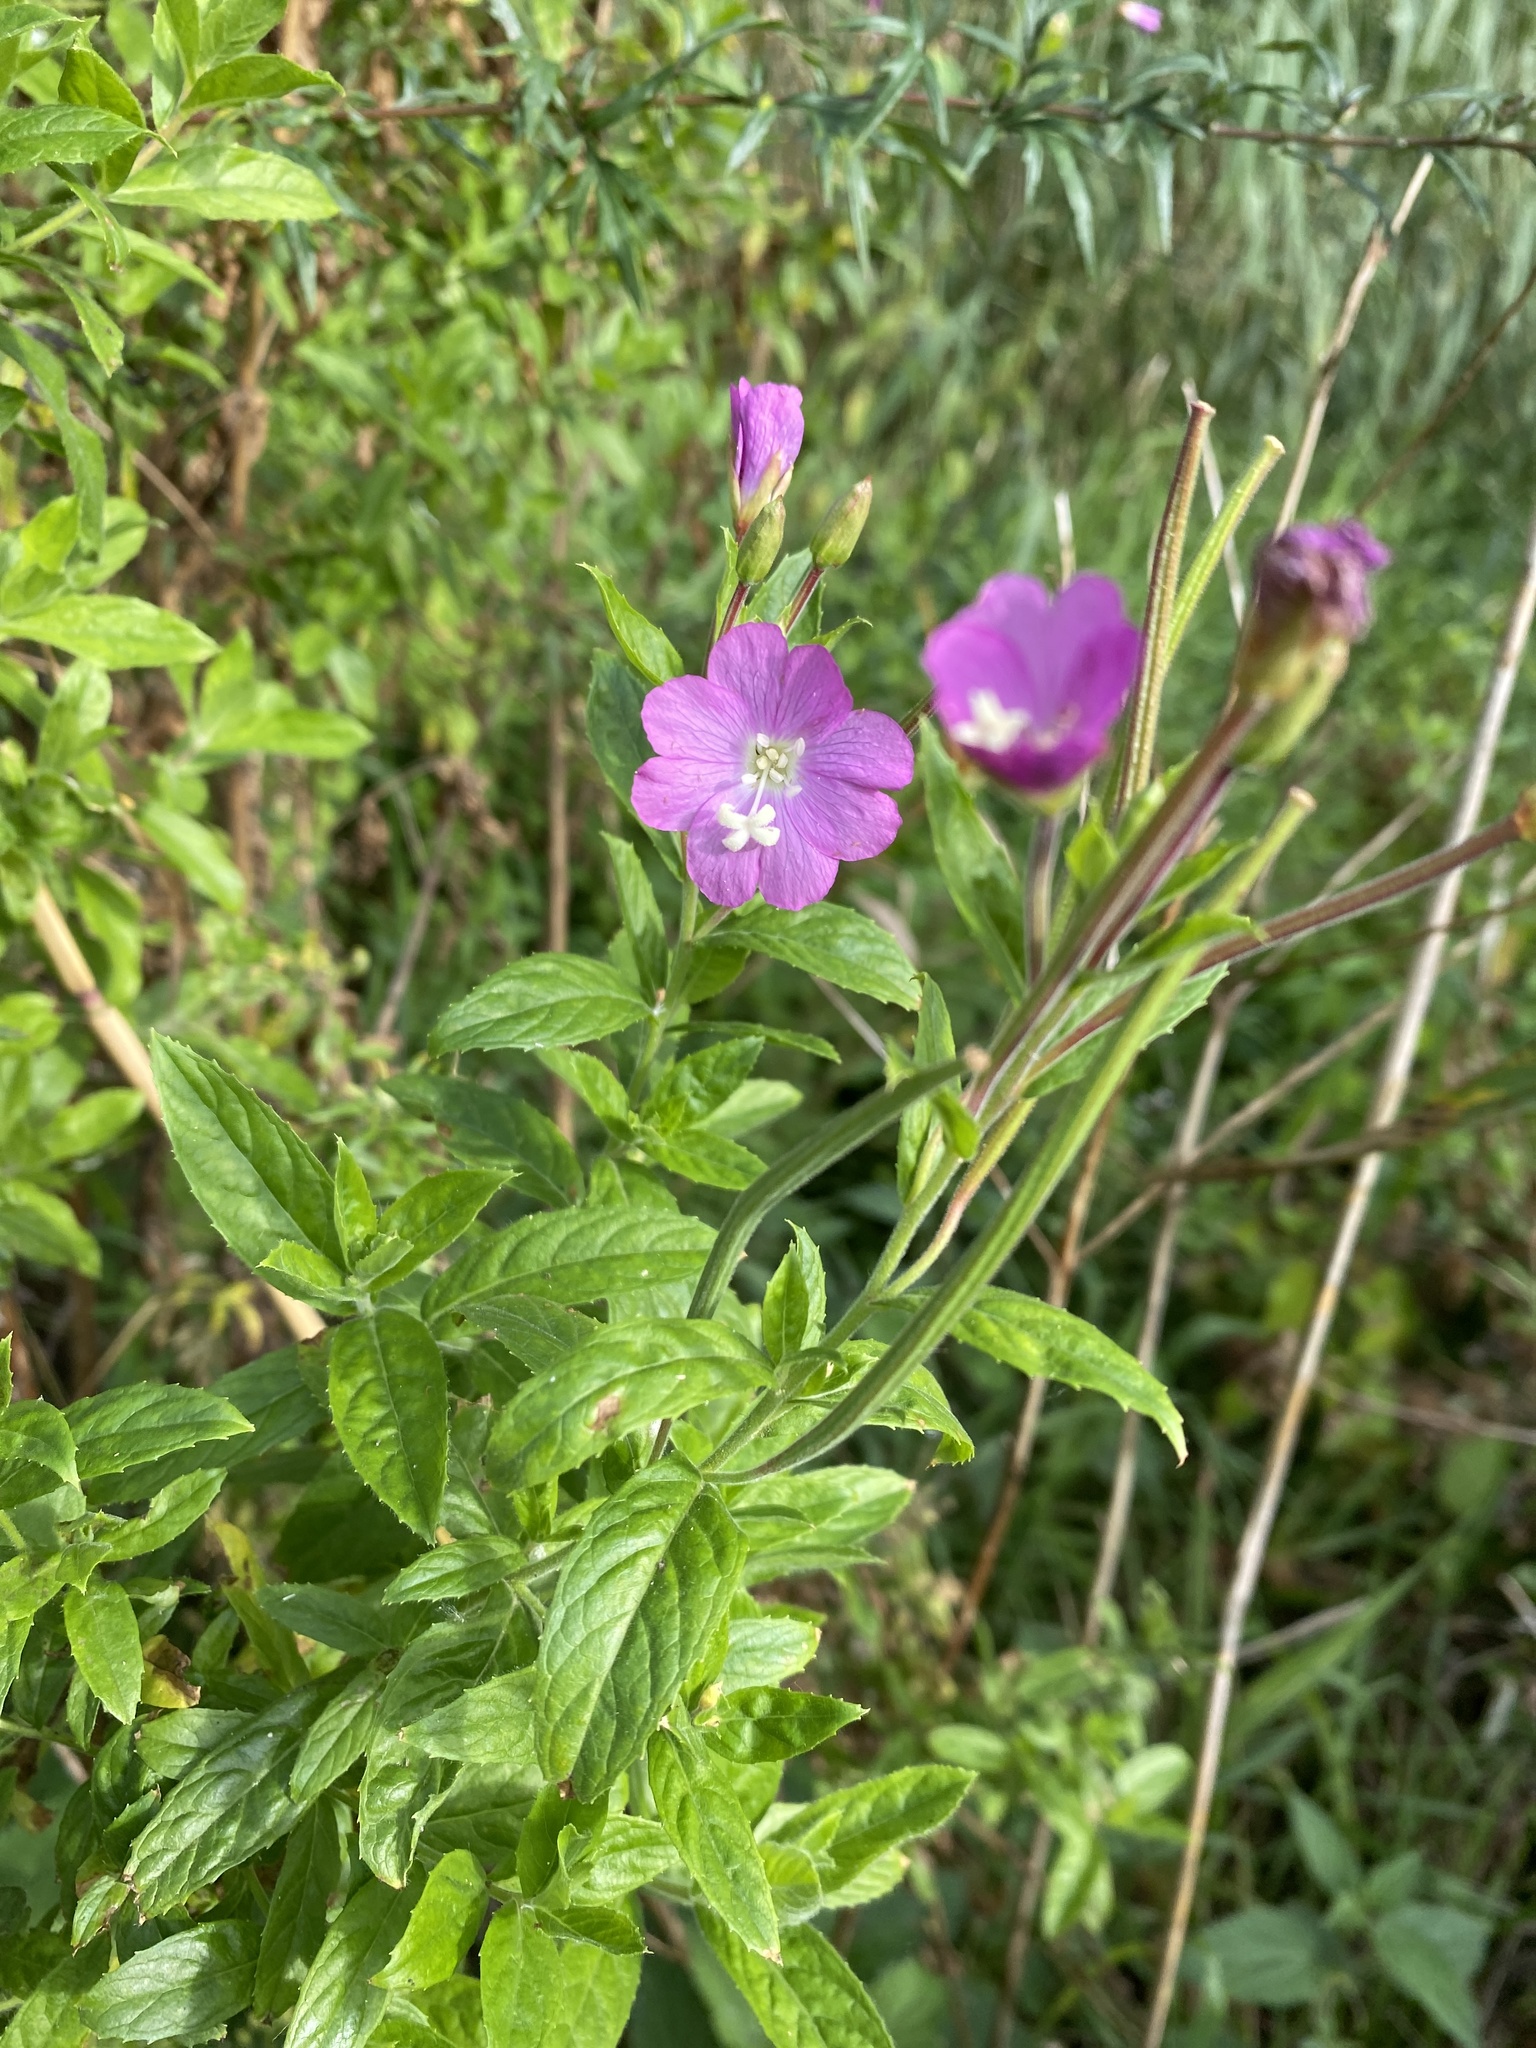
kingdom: Plantae
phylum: Tracheophyta
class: Magnoliopsida
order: Myrtales
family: Onagraceae
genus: Epilobium
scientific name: Epilobium hirsutum
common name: Great willowherb
